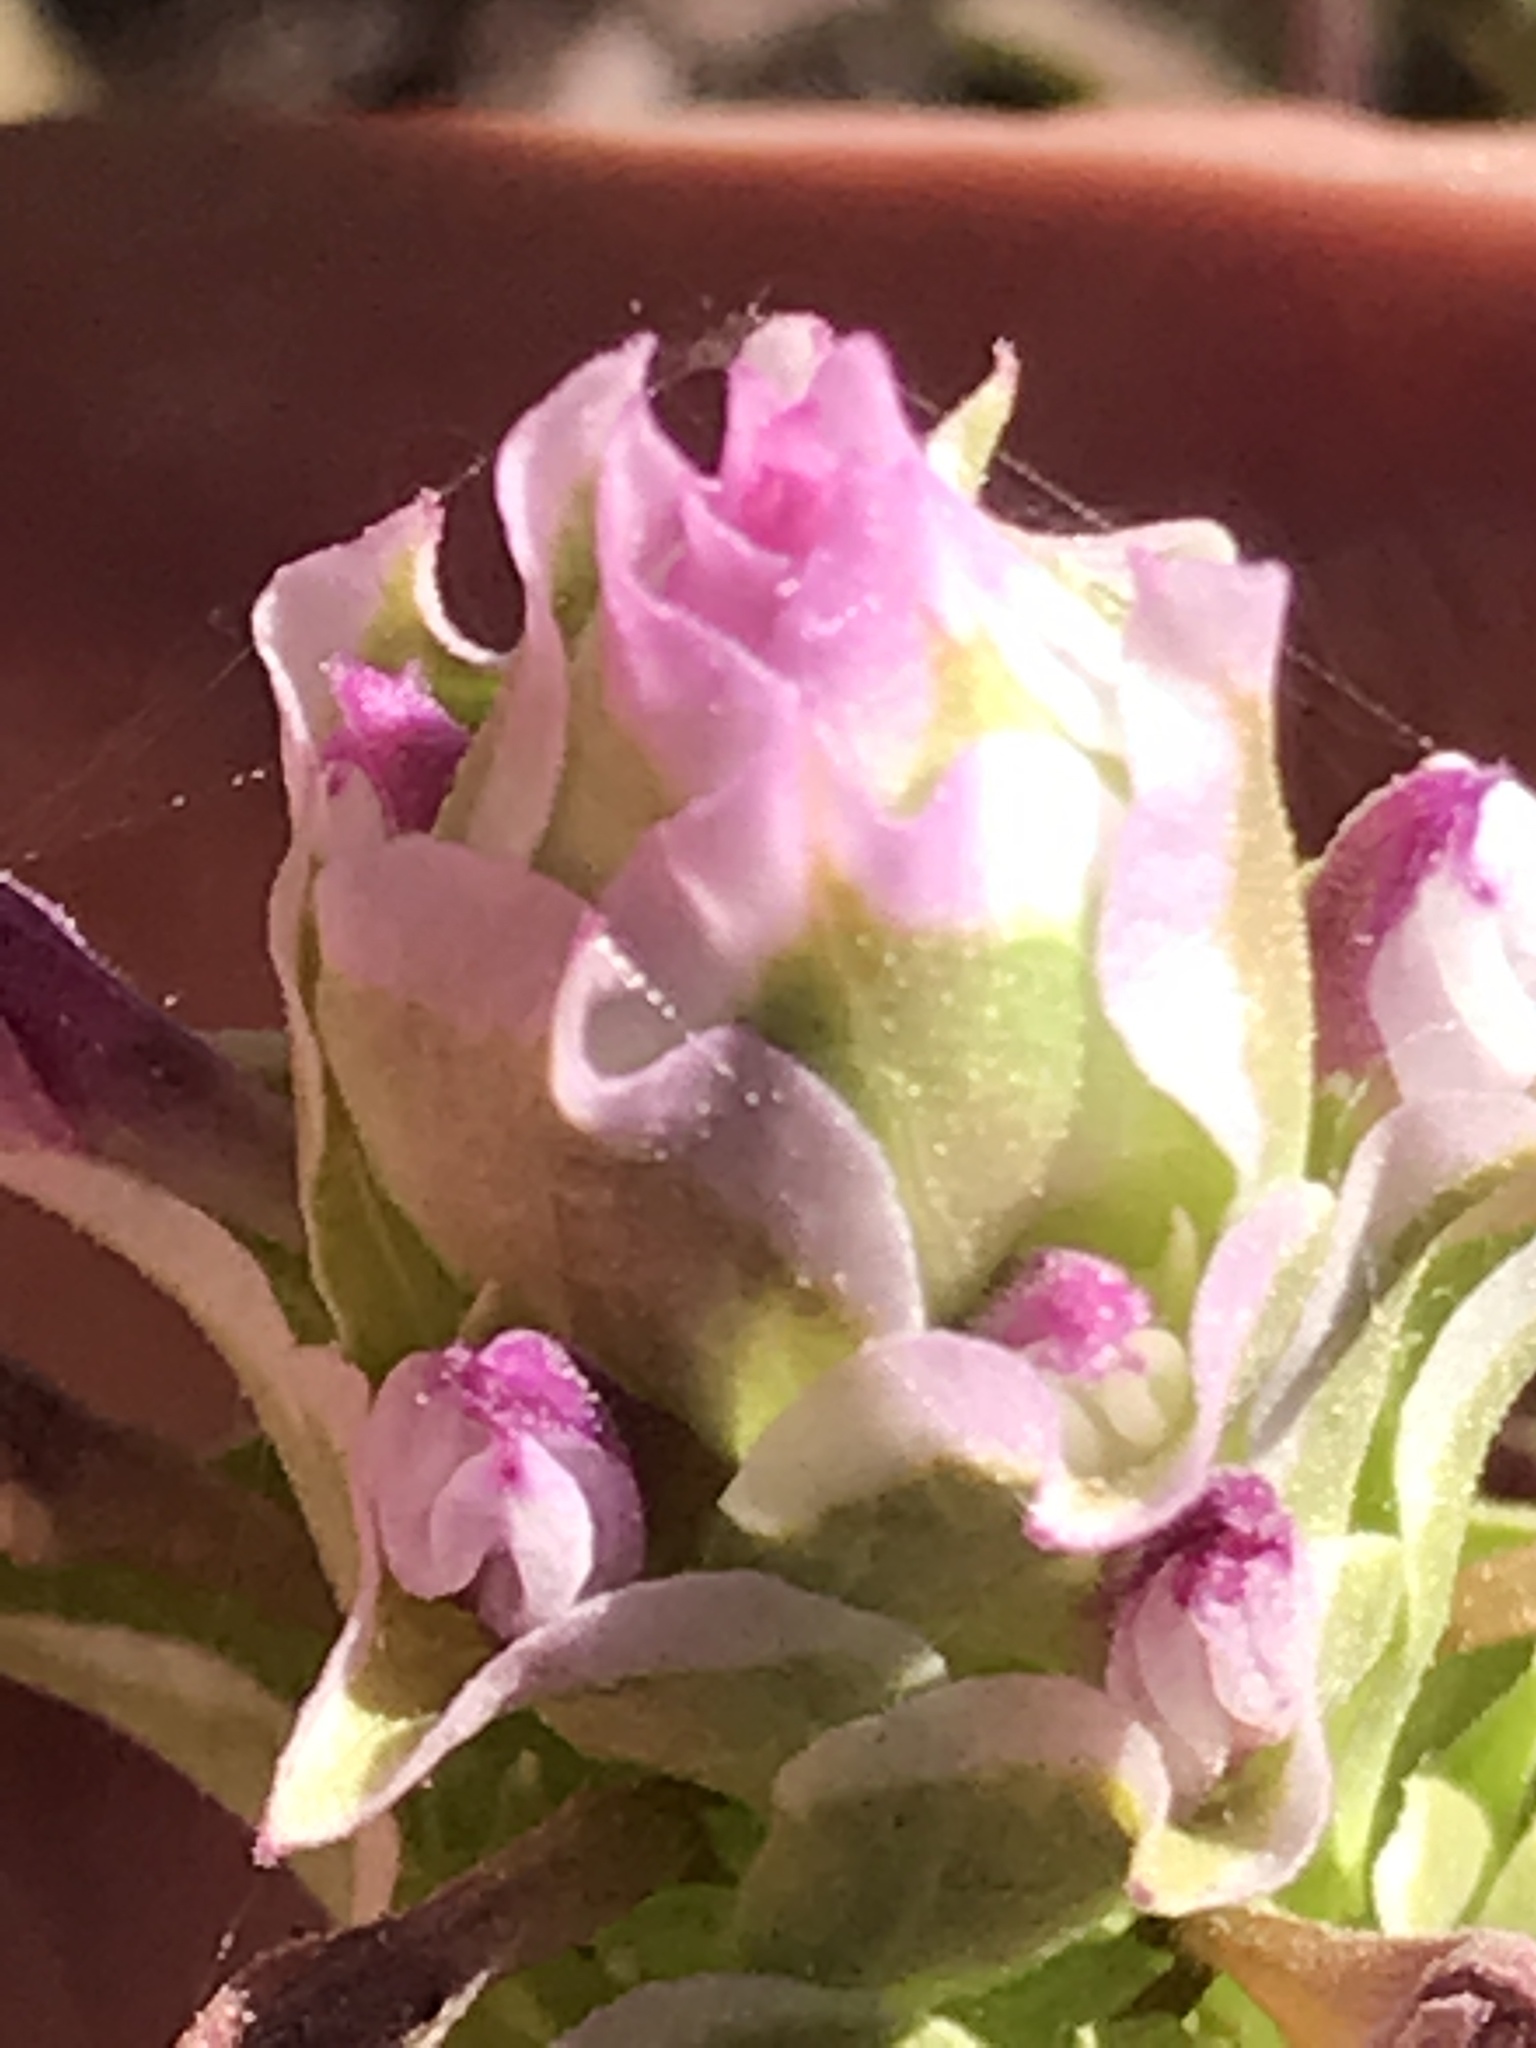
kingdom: Plantae
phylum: Tracheophyta
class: Magnoliopsida
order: Lamiales
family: Orobanchaceae
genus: Orthocarpus
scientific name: Orthocarpus cuspidatus
